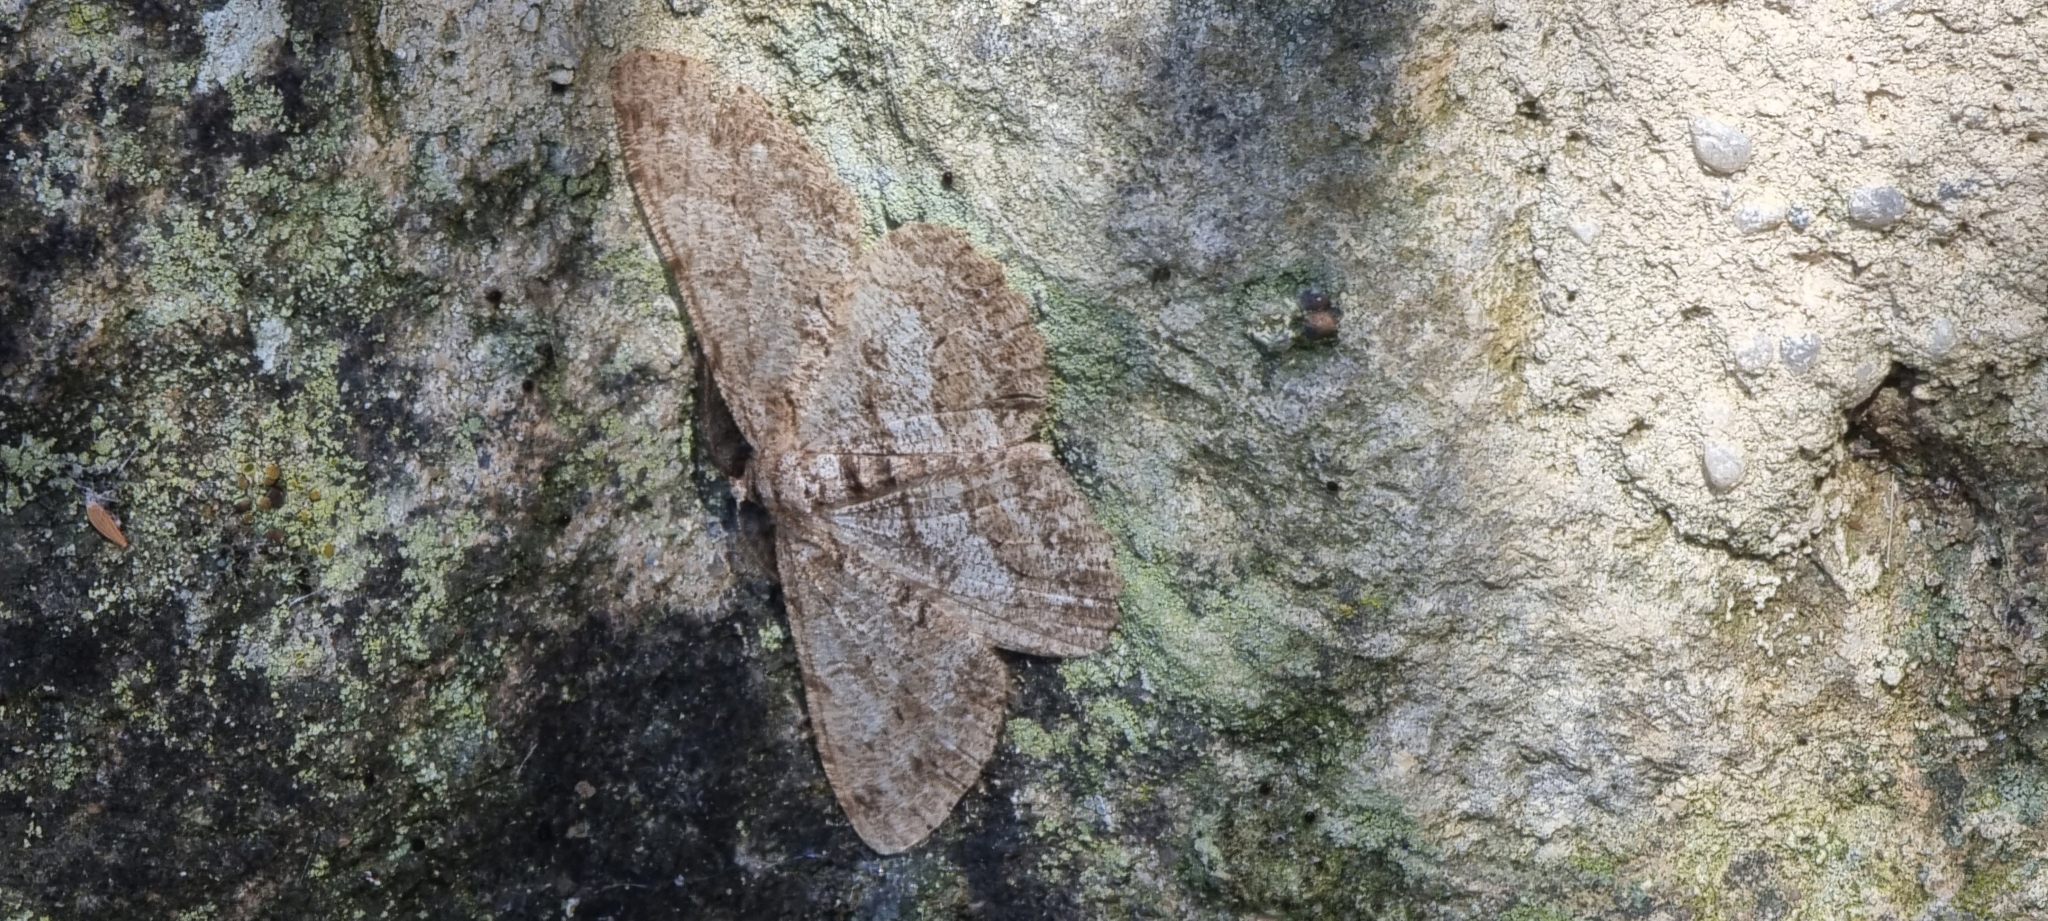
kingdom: Animalia
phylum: Arthropoda
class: Insecta
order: Lepidoptera
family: Geometridae
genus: Hypomecis
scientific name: Hypomecis punctinalis
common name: Pale oak beauty
